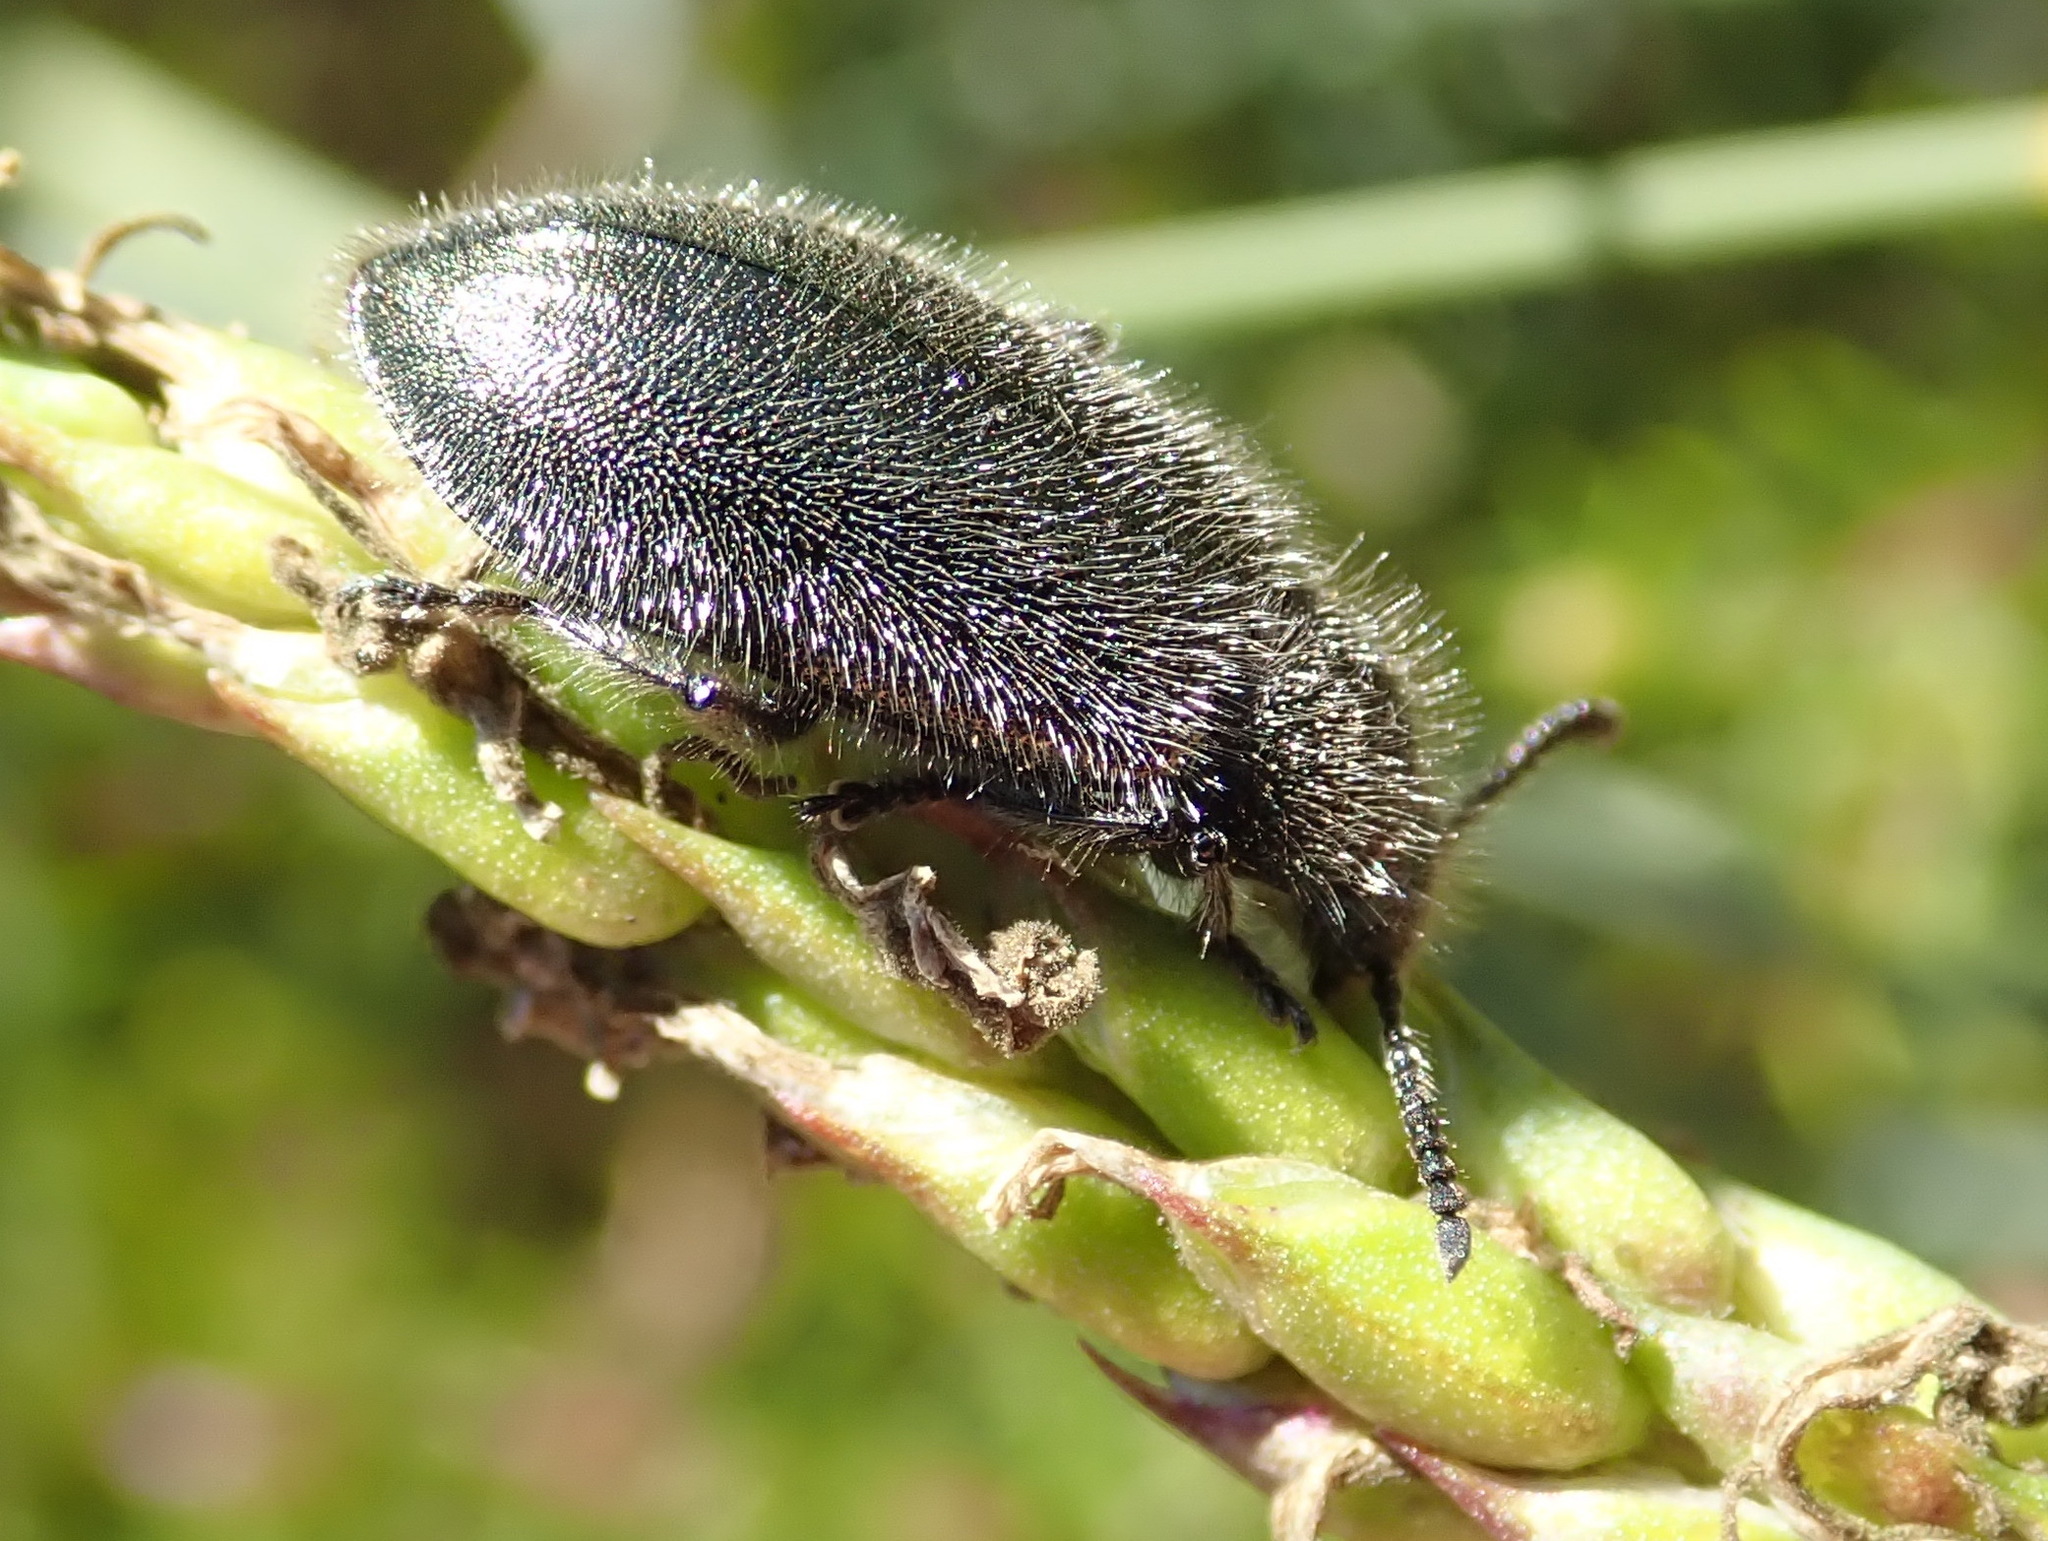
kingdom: Animalia
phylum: Arthropoda
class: Insecta
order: Coleoptera
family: Tenebrionidae
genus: Lagria
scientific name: Lagria villosa
